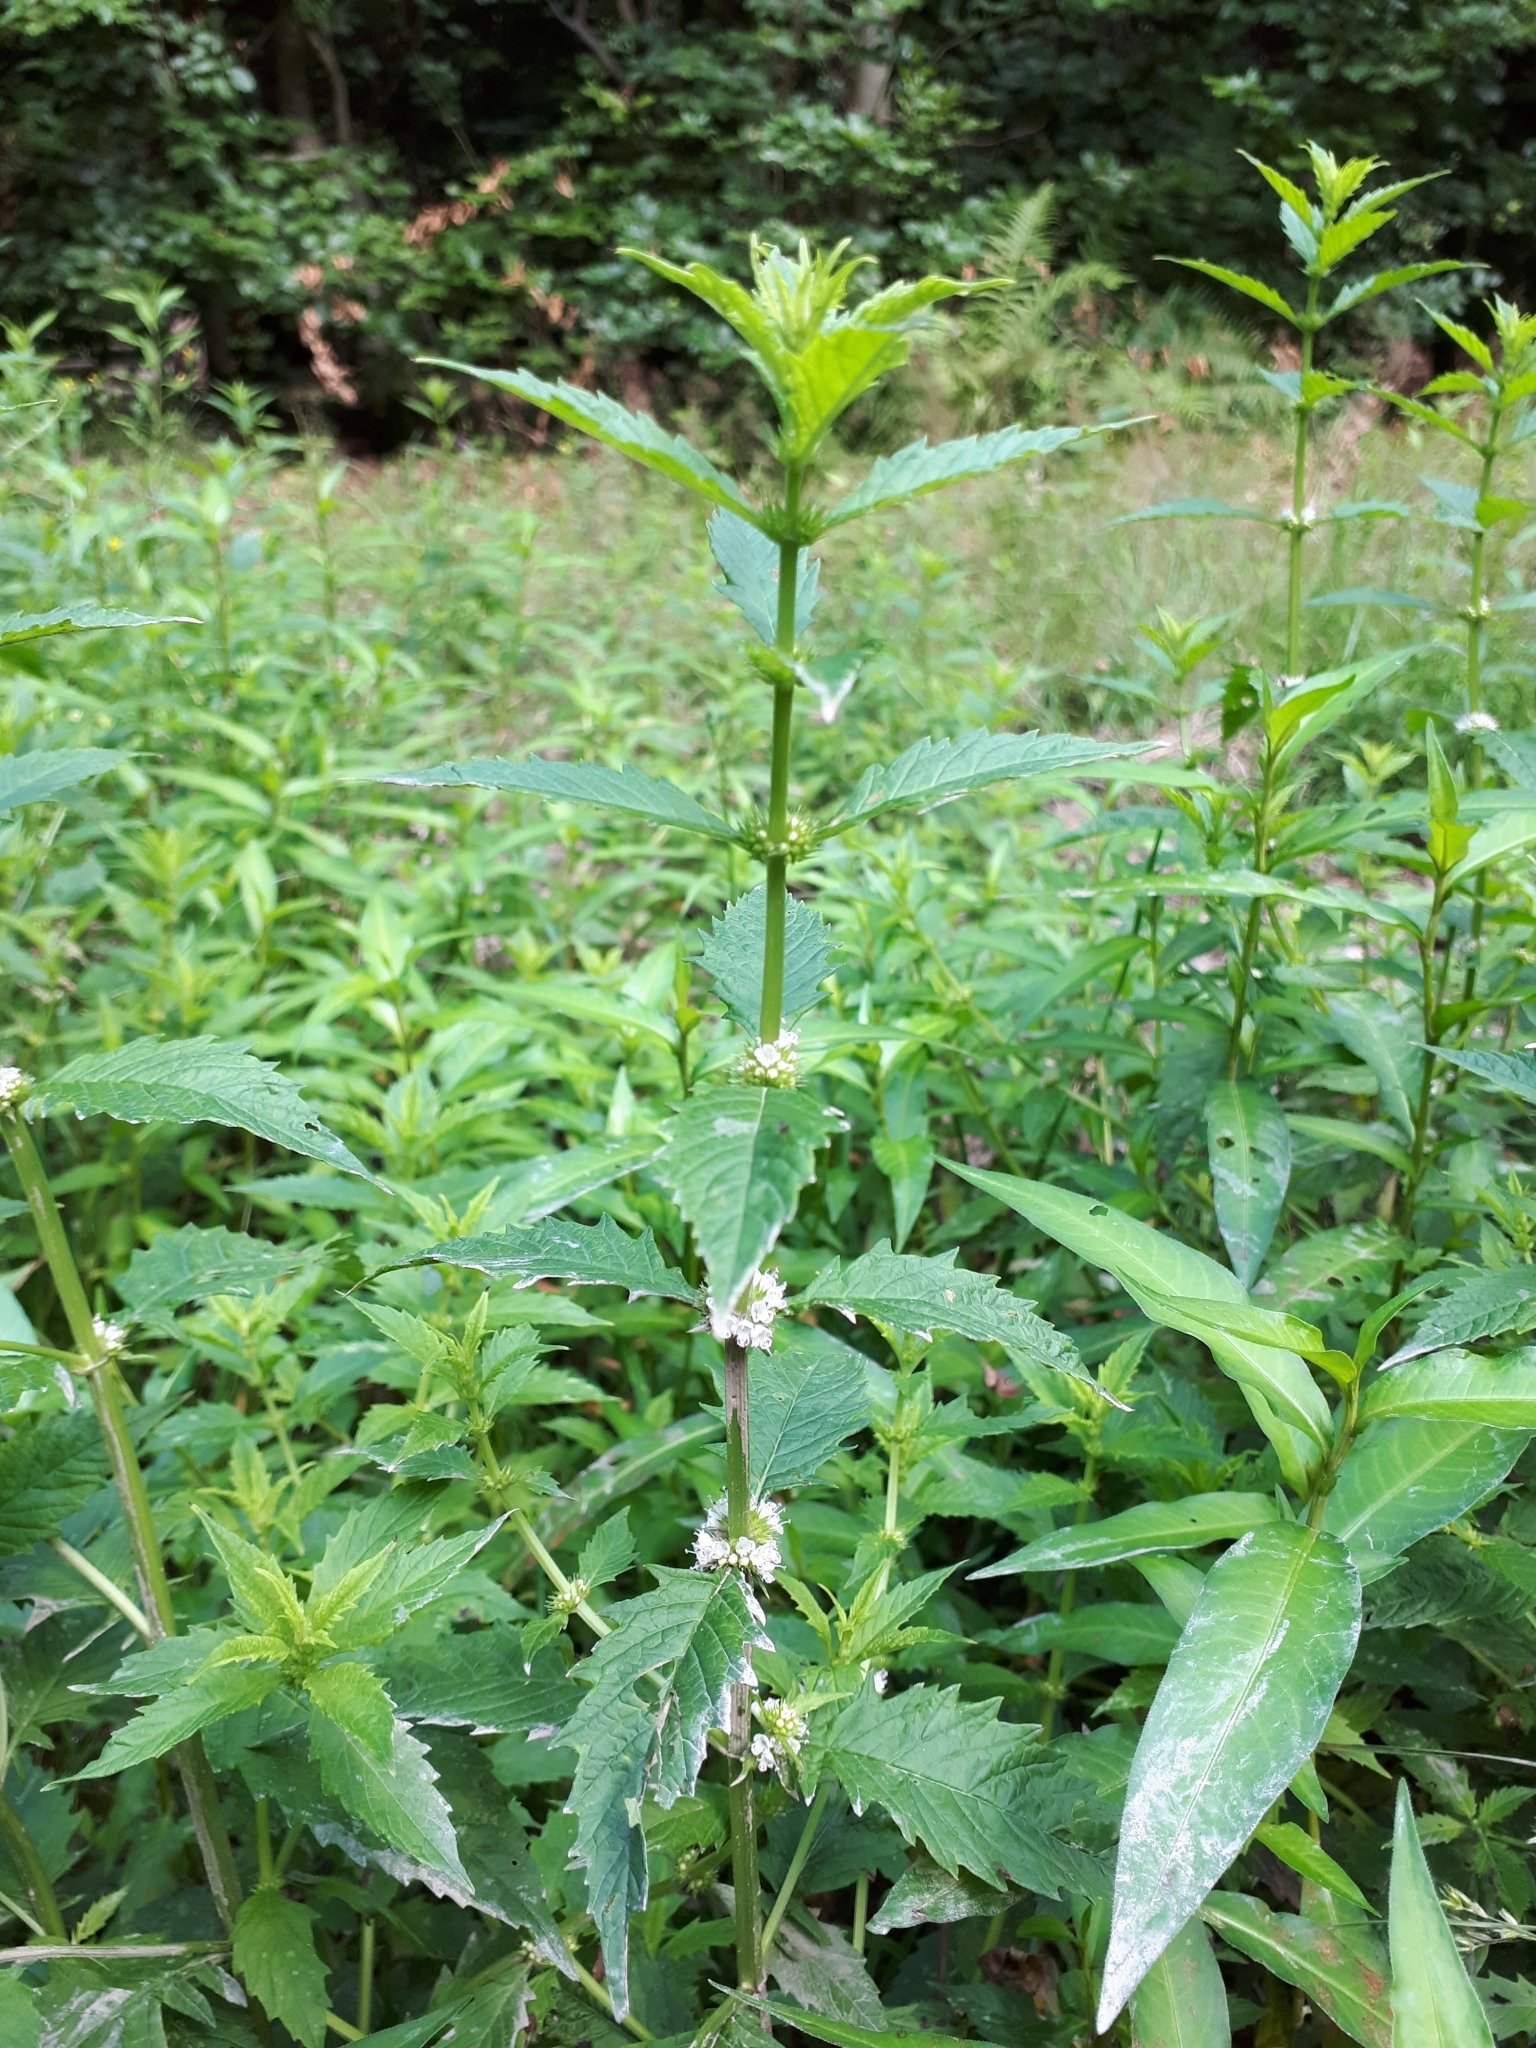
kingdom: Plantae
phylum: Tracheophyta
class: Magnoliopsida
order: Lamiales
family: Lamiaceae
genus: Lycopus
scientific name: Lycopus europaeus
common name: European bugleweed
